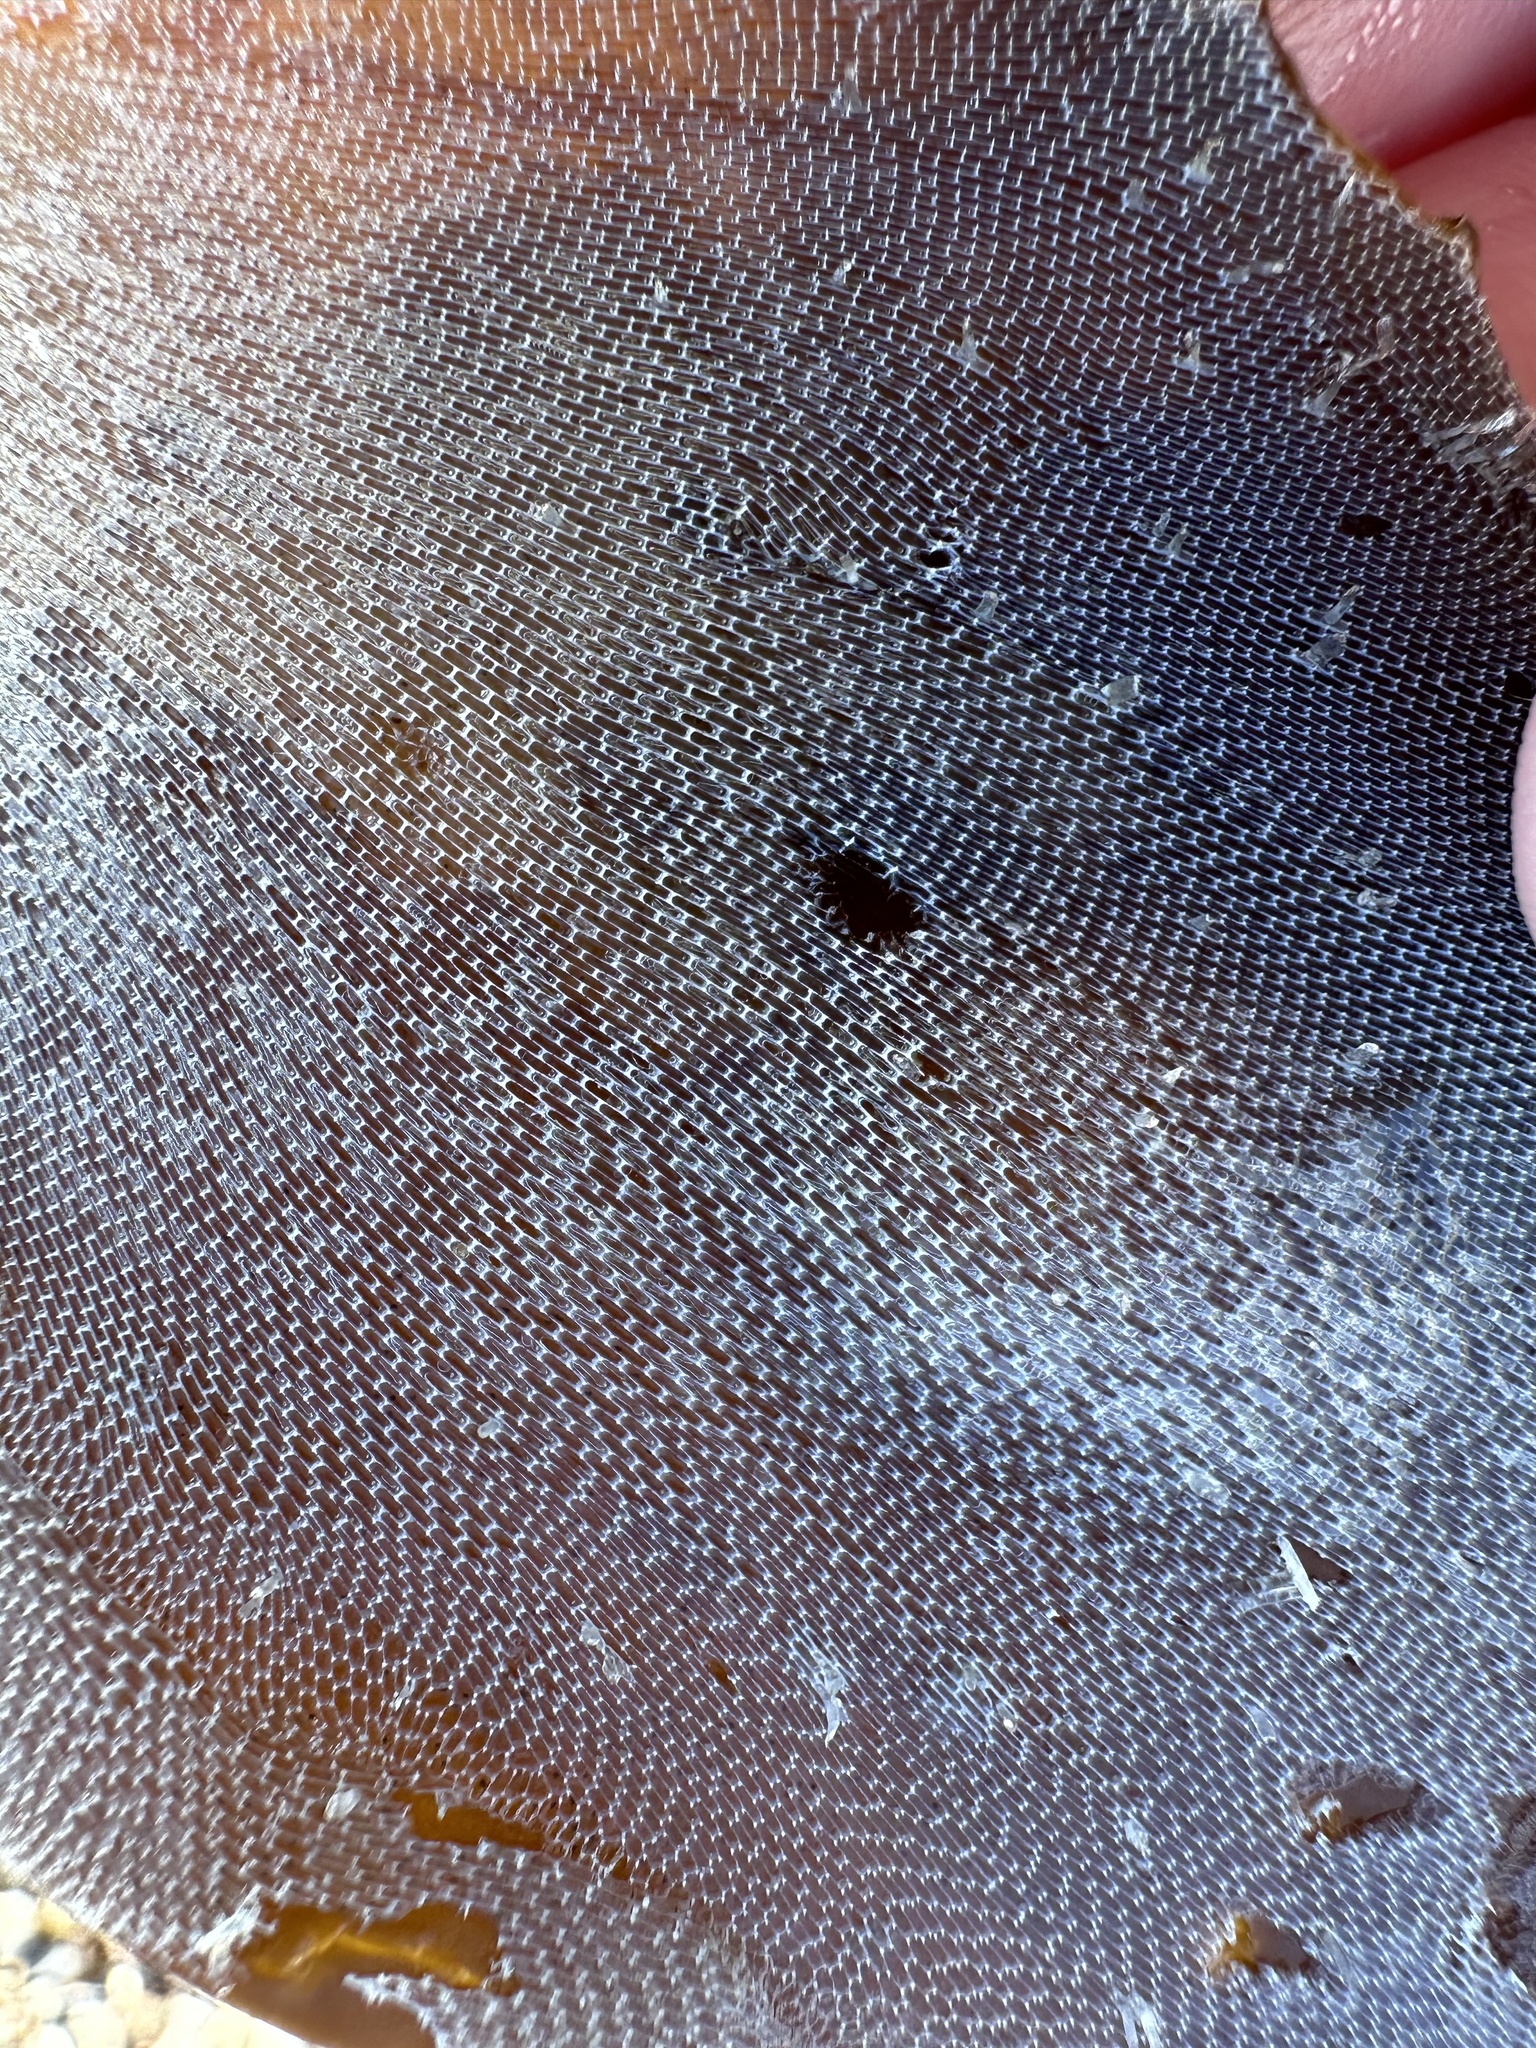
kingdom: Animalia
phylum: Bryozoa
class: Gymnolaemata
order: Cheilostomatida
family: Membraniporidae
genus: Membranipora
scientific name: Membranipora membranacea
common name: Sea mat
